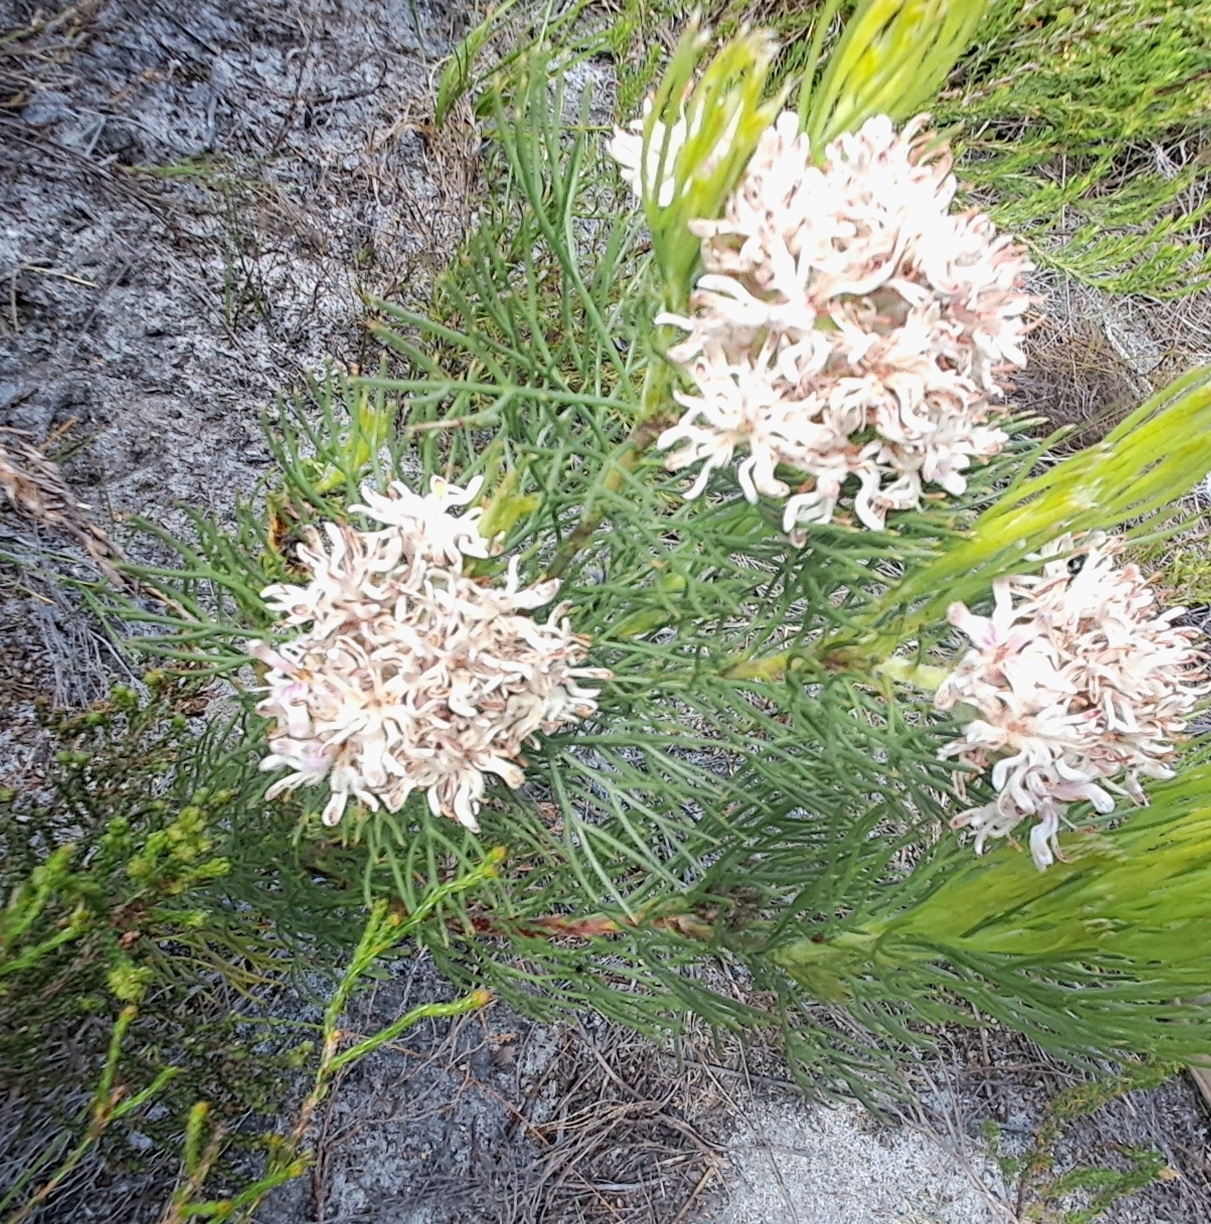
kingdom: Plantae
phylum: Tracheophyta
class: Magnoliopsida
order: Proteales
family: Proteaceae
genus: Serruria
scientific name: Serruria ascendens
